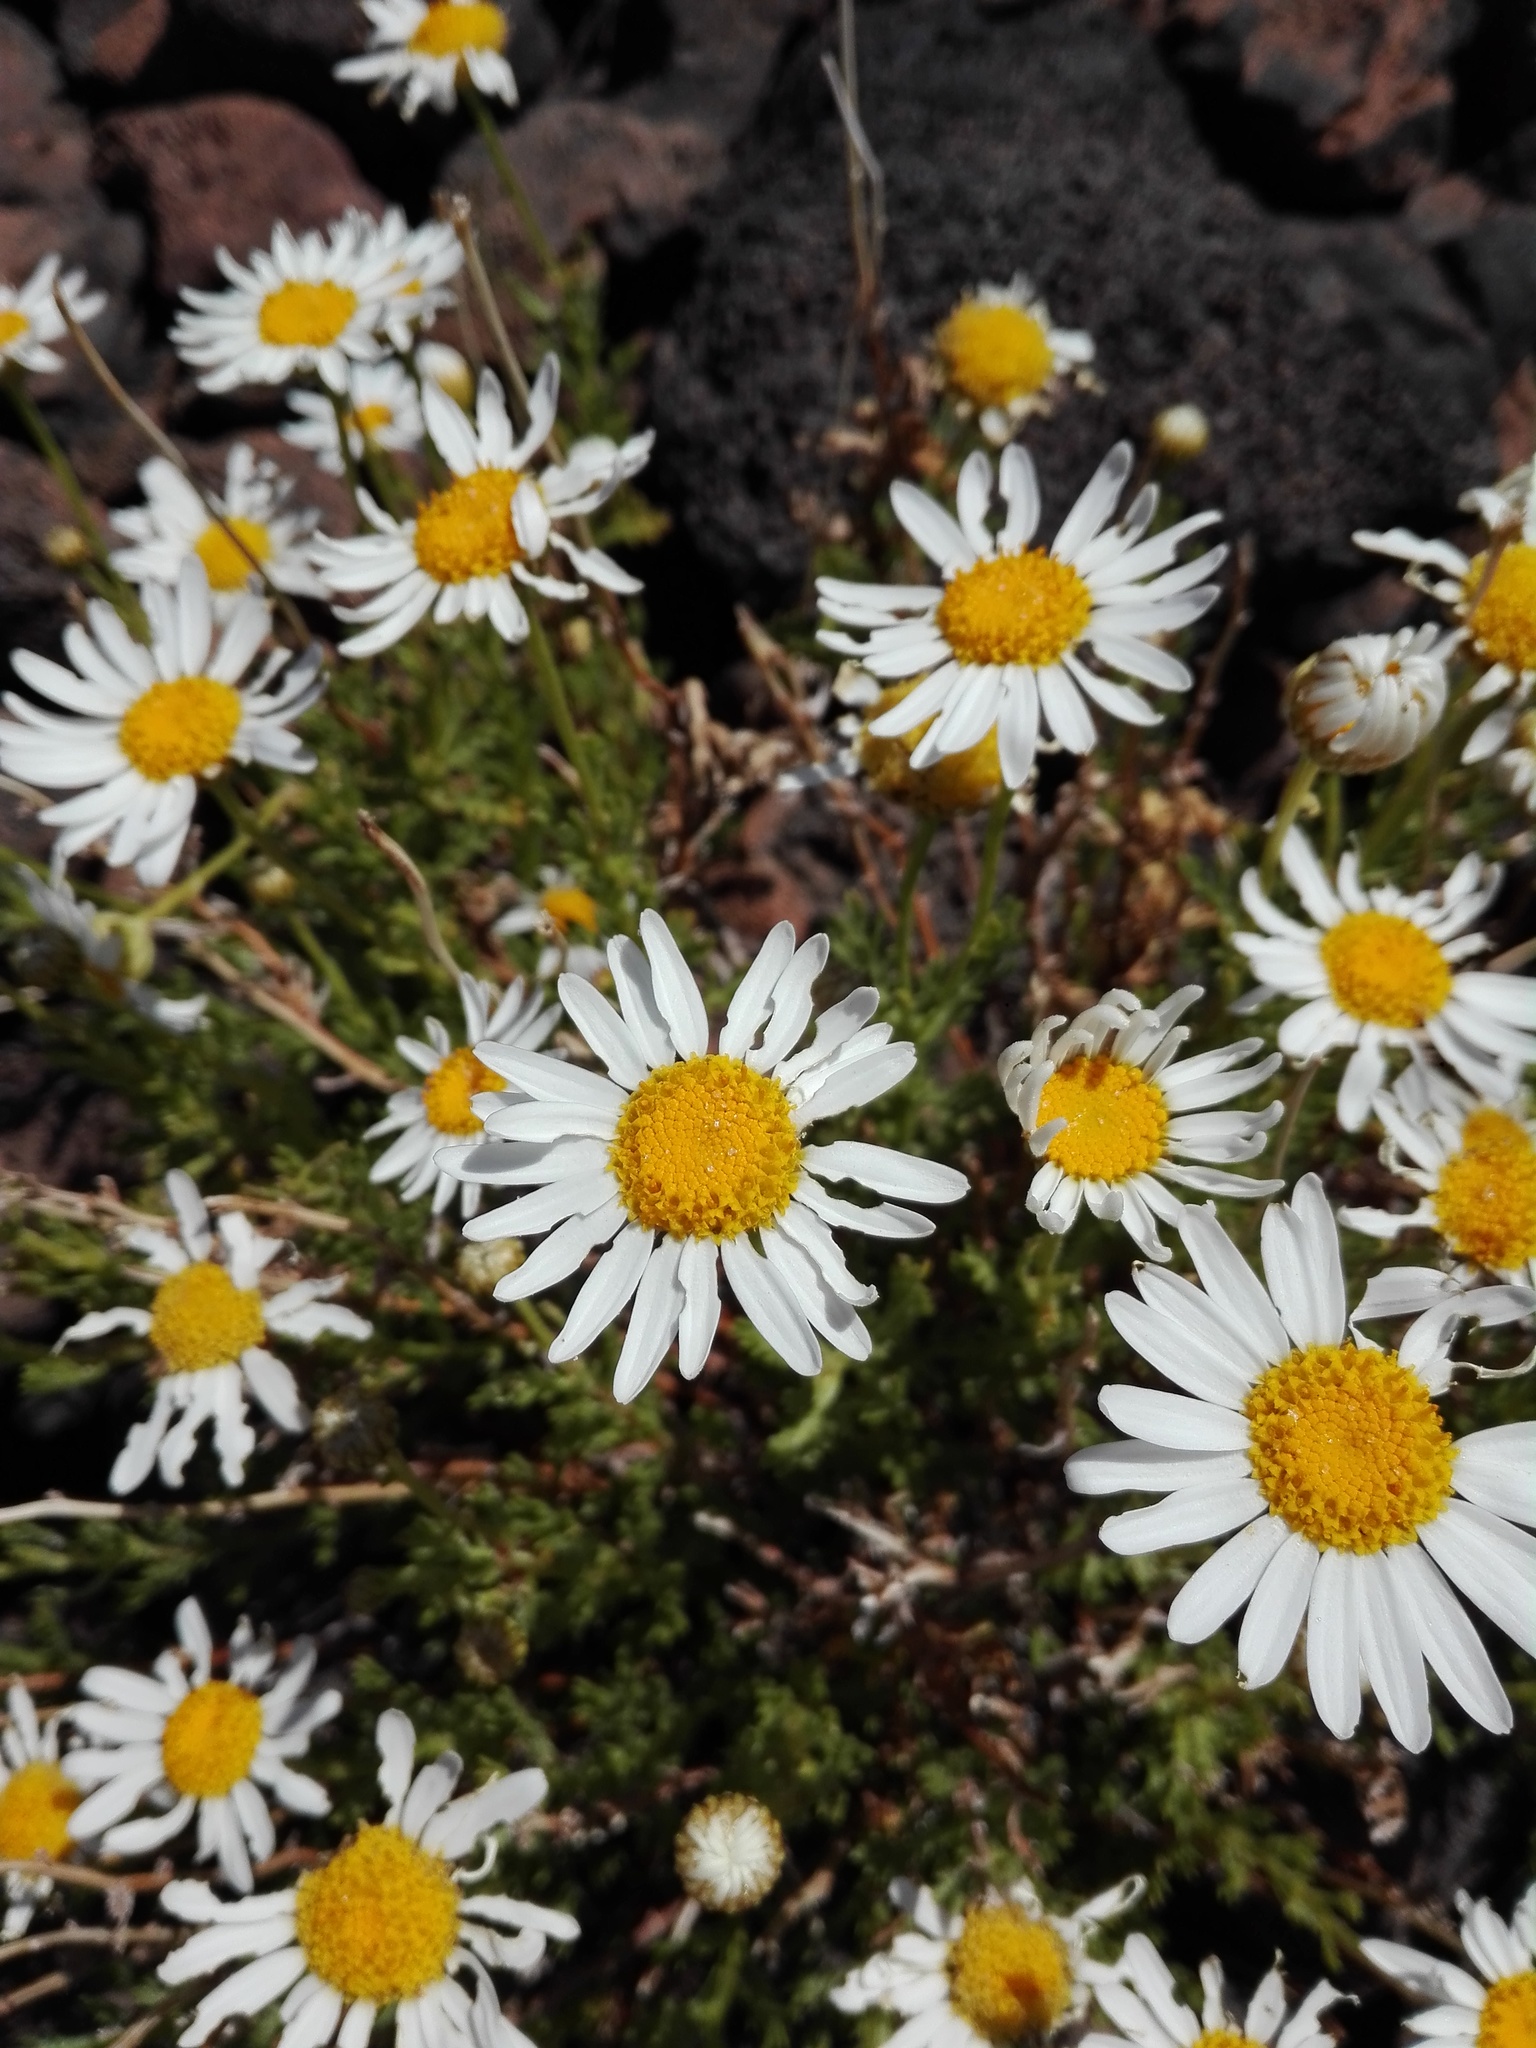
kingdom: Plantae
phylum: Tracheophyta
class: Magnoliopsida
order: Asterales
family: Asteraceae
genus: Argyranthemum
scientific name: Argyranthemum tenerifae
